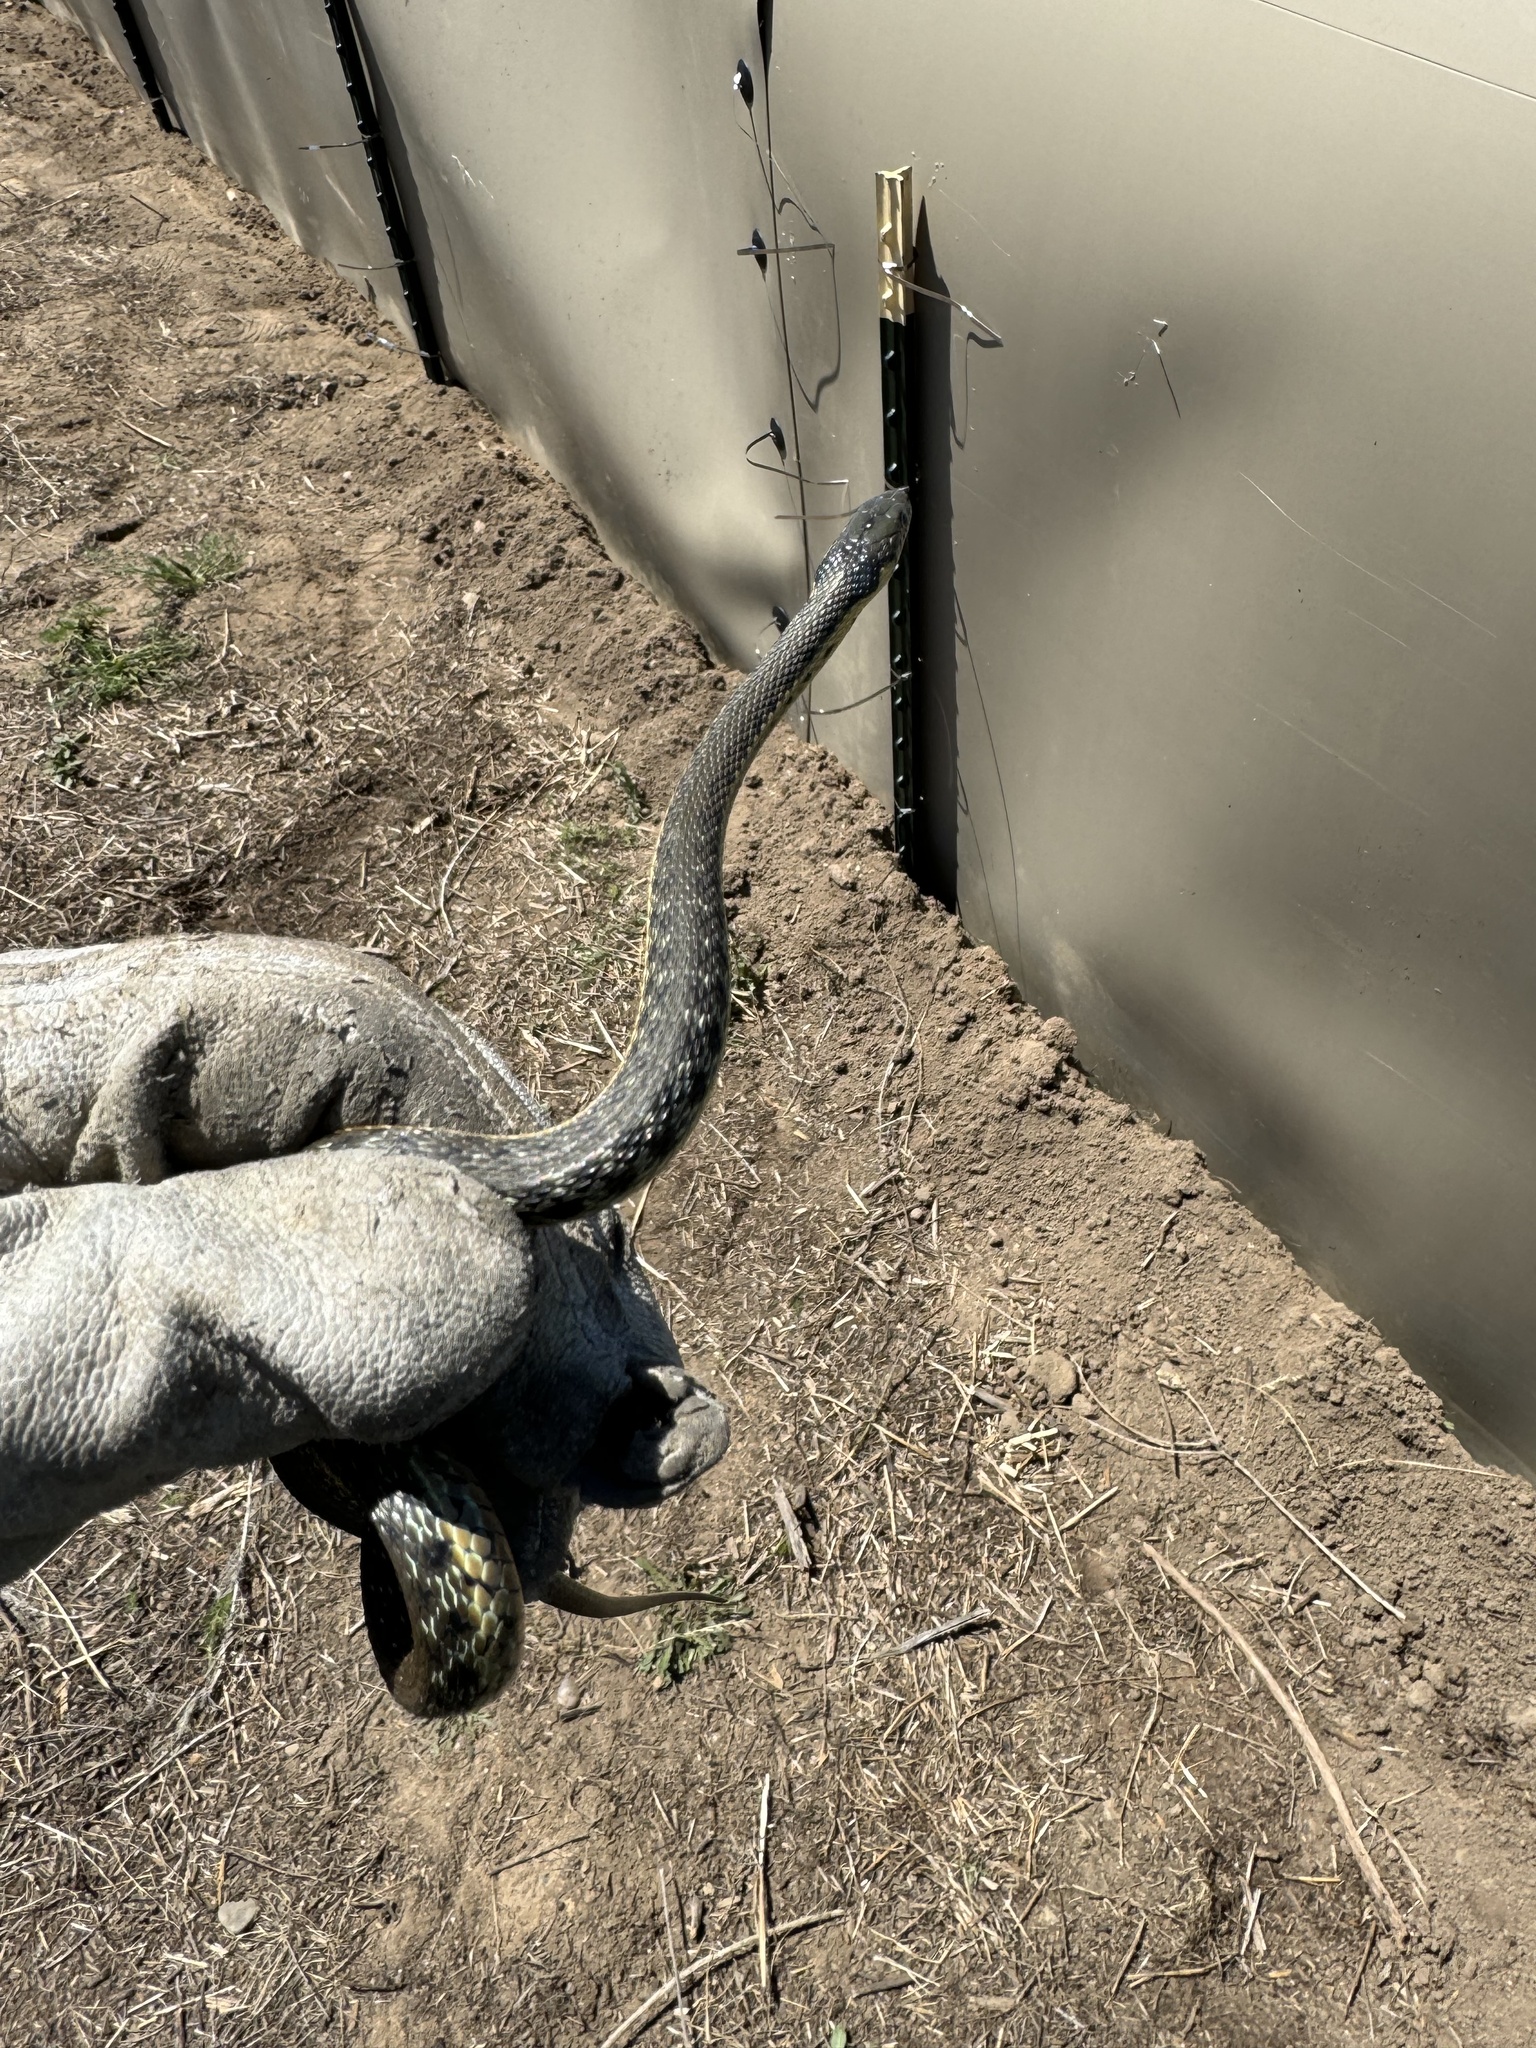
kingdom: Animalia
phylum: Chordata
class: Squamata
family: Colubridae
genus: Thamnophis
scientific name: Thamnophis hammondii
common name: Two-striped garter snake
